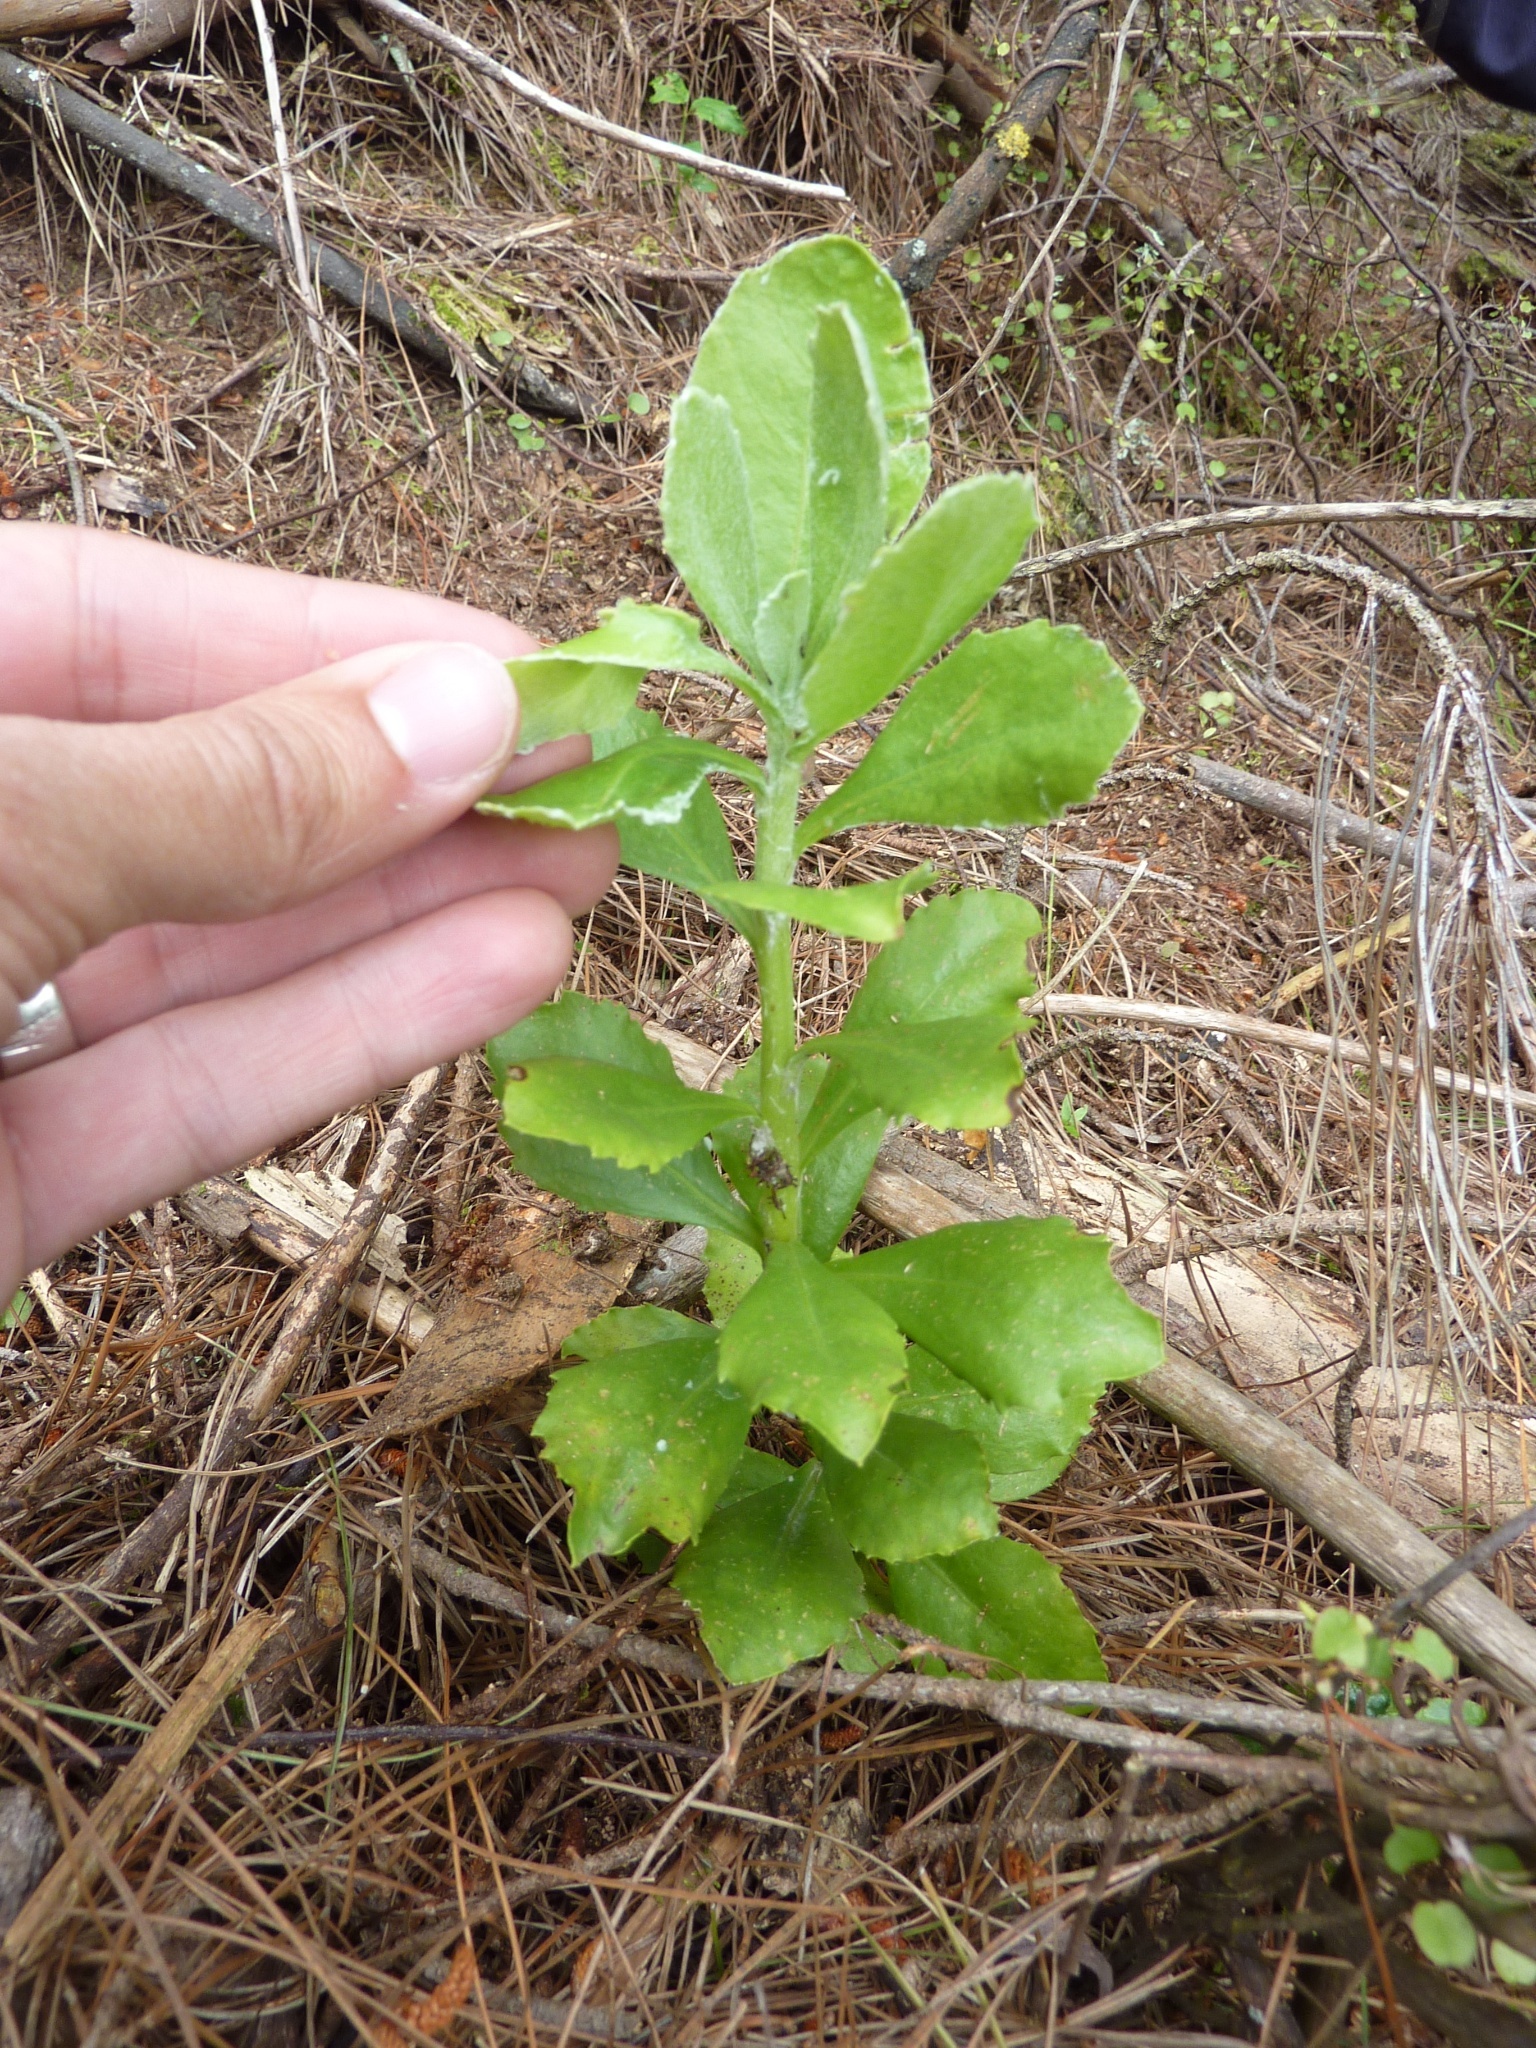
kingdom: Plantae
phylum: Tracheophyta
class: Magnoliopsida
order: Asterales
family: Asteraceae
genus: Osteospermum
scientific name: Osteospermum moniliferum
